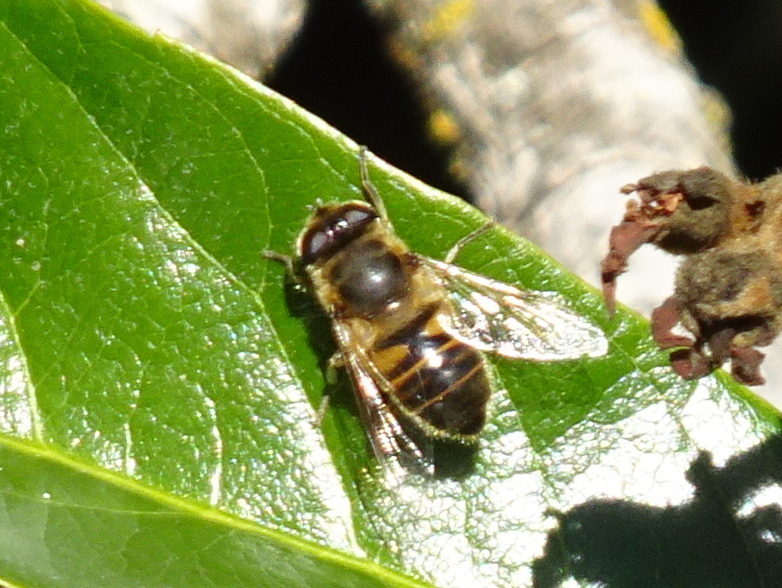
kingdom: Animalia
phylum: Arthropoda
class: Insecta
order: Diptera
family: Syrphidae
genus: Eristalis
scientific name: Eristalis tenax
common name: Drone fly
